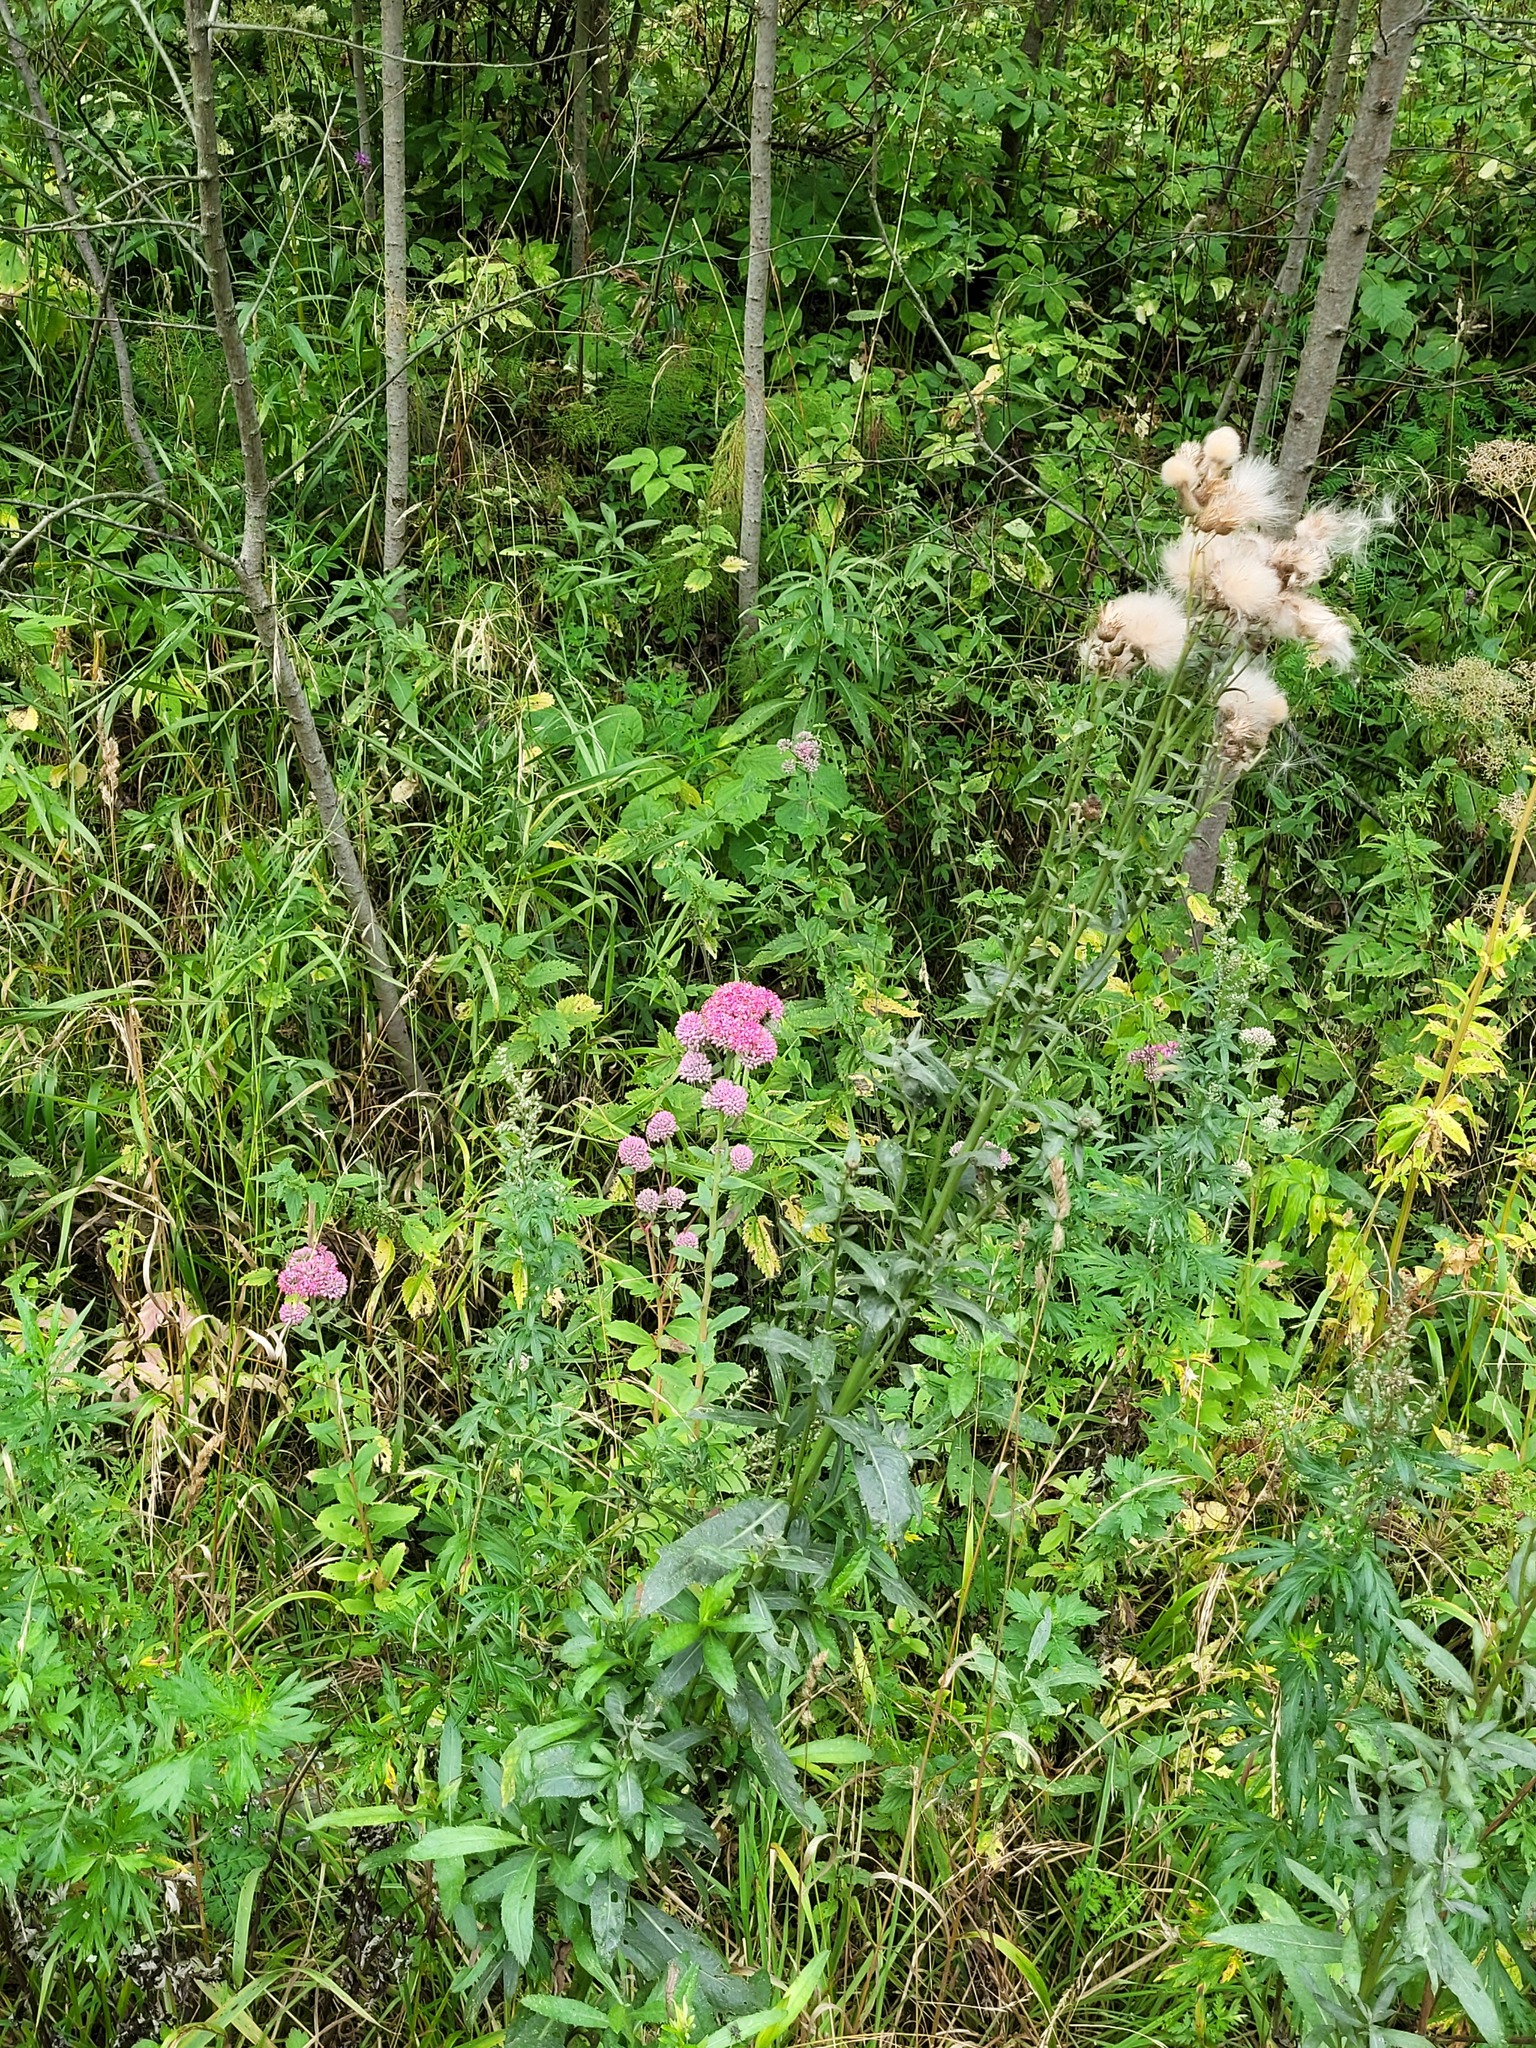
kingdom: Plantae
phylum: Tracheophyta
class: Magnoliopsida
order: Saxifragales
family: Crassulaceae
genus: Hylotelephium
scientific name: Hylotelephium telephium
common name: Live-forever
